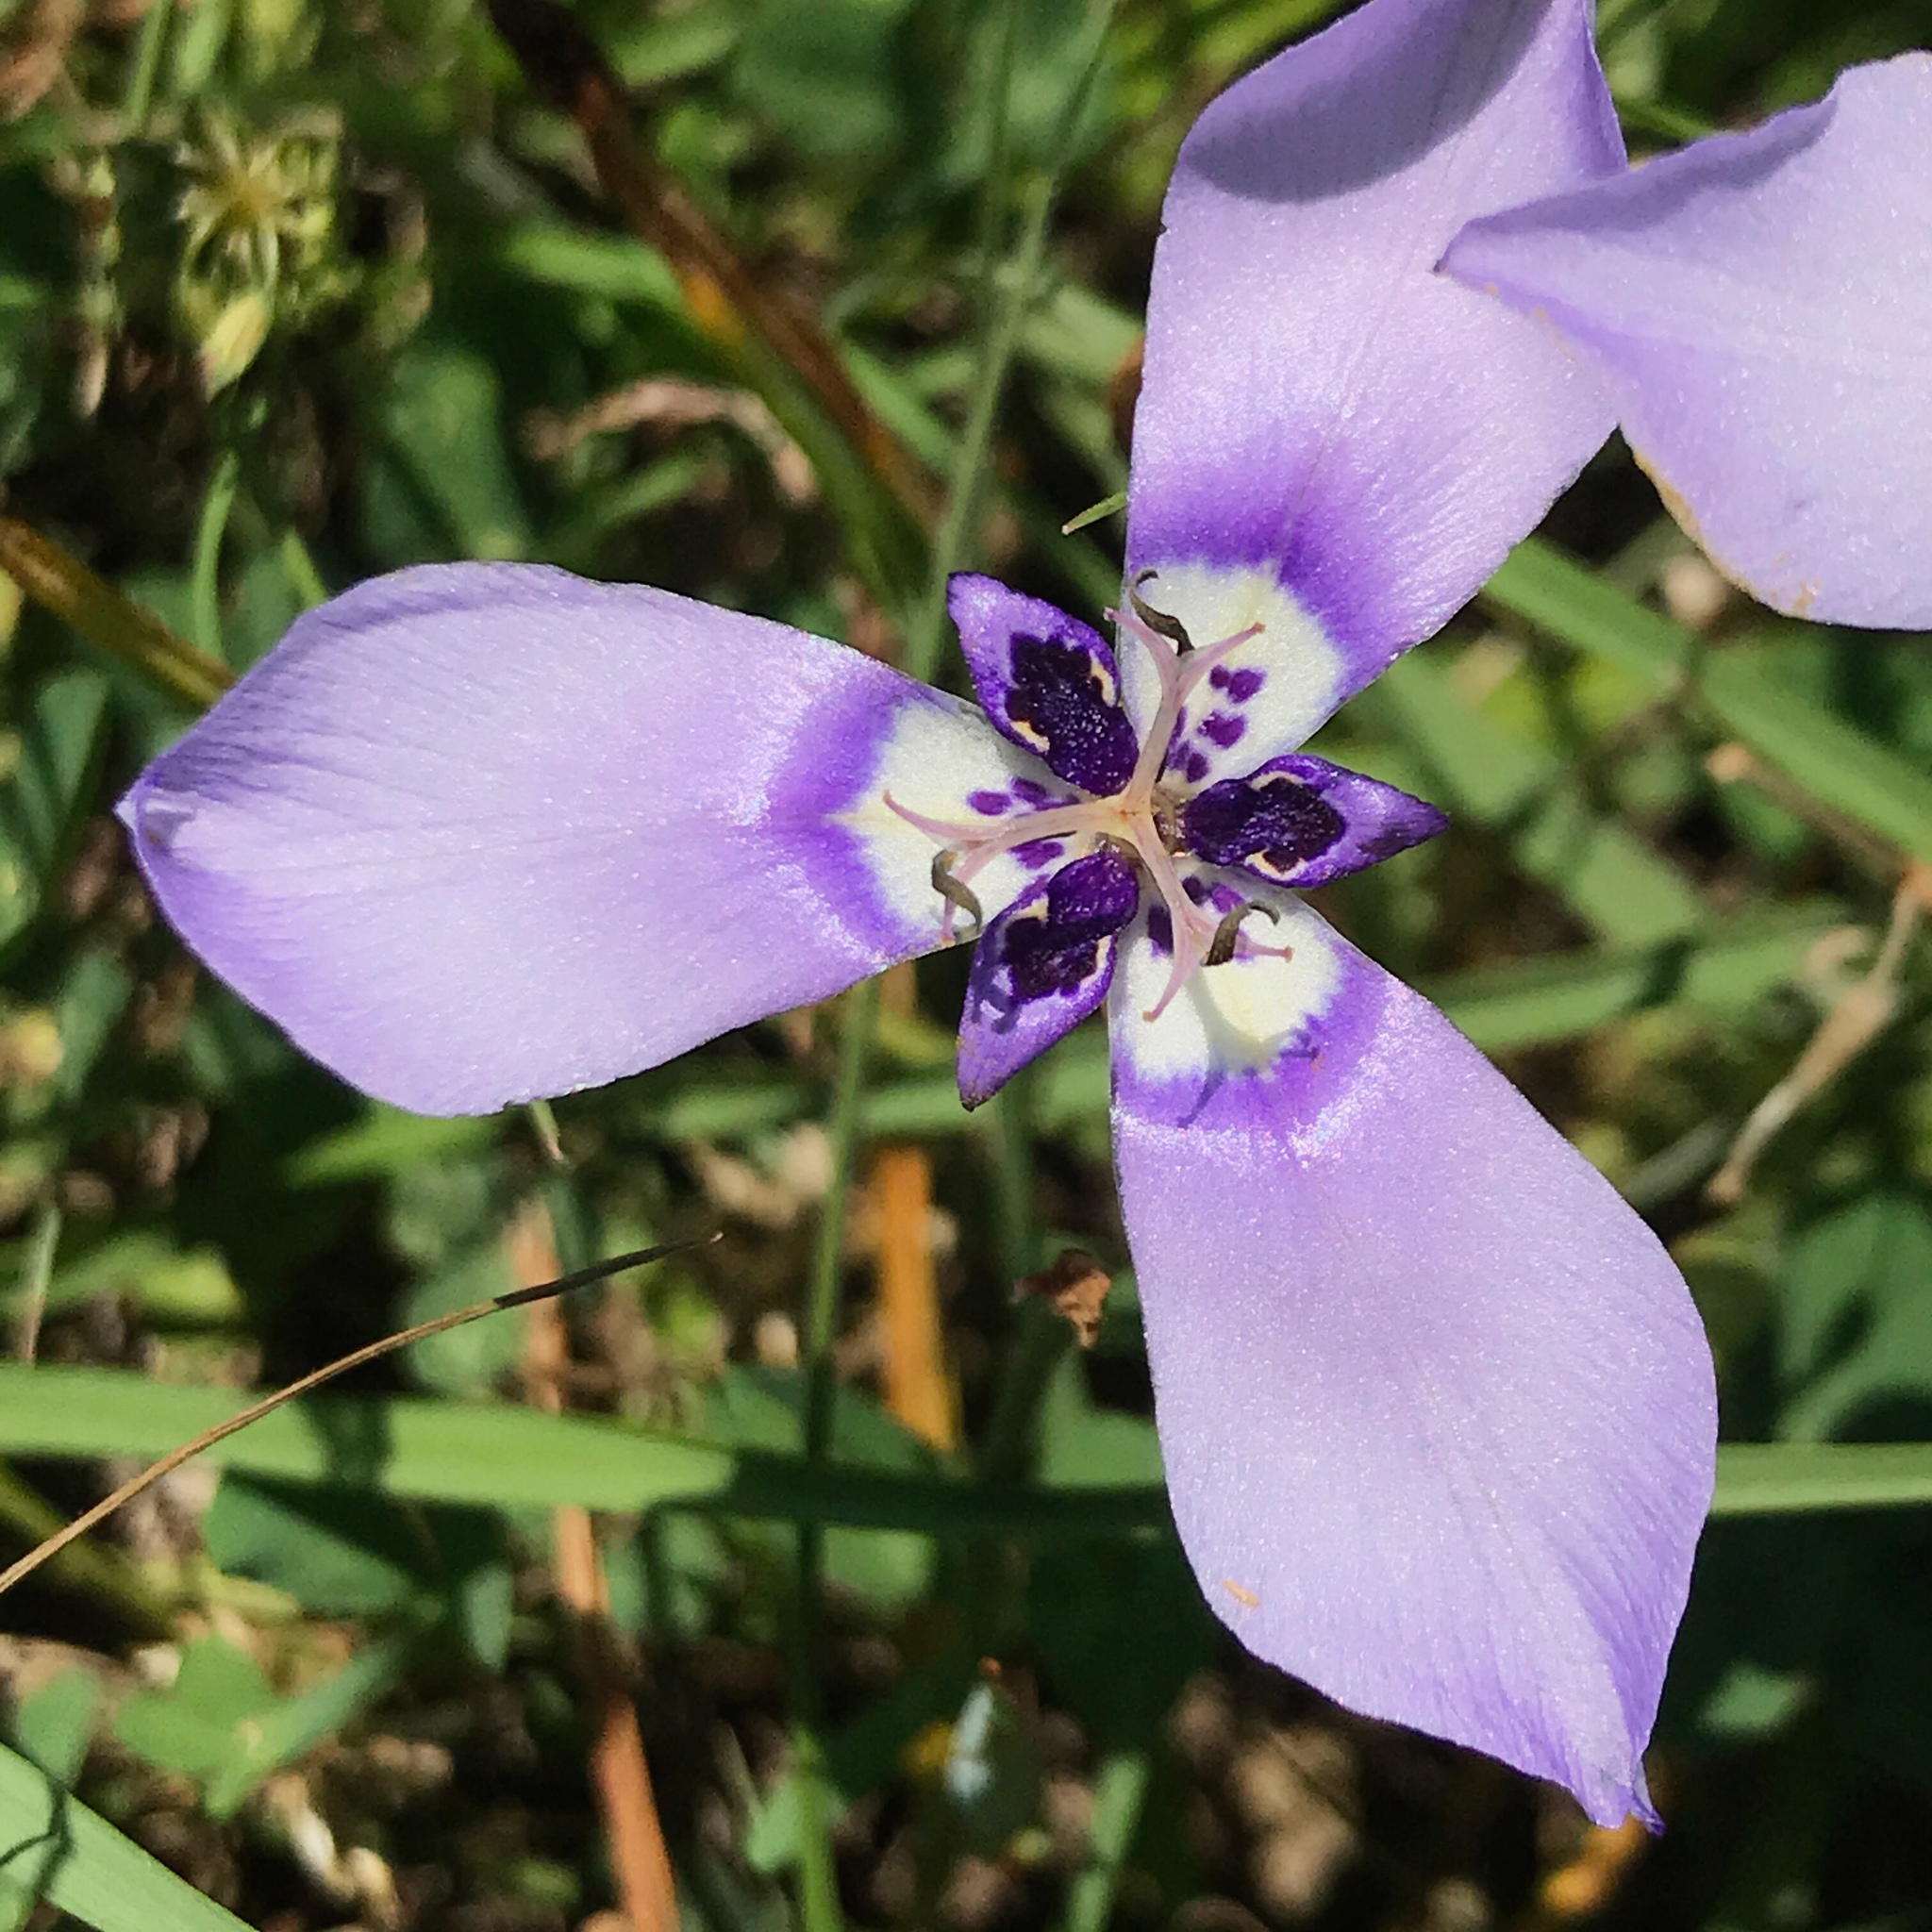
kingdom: Plantae
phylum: Tracheophyta
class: Liliopsida
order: Asparagales
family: Iridaceae
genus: Herbertia
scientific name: Herbertia lahue
